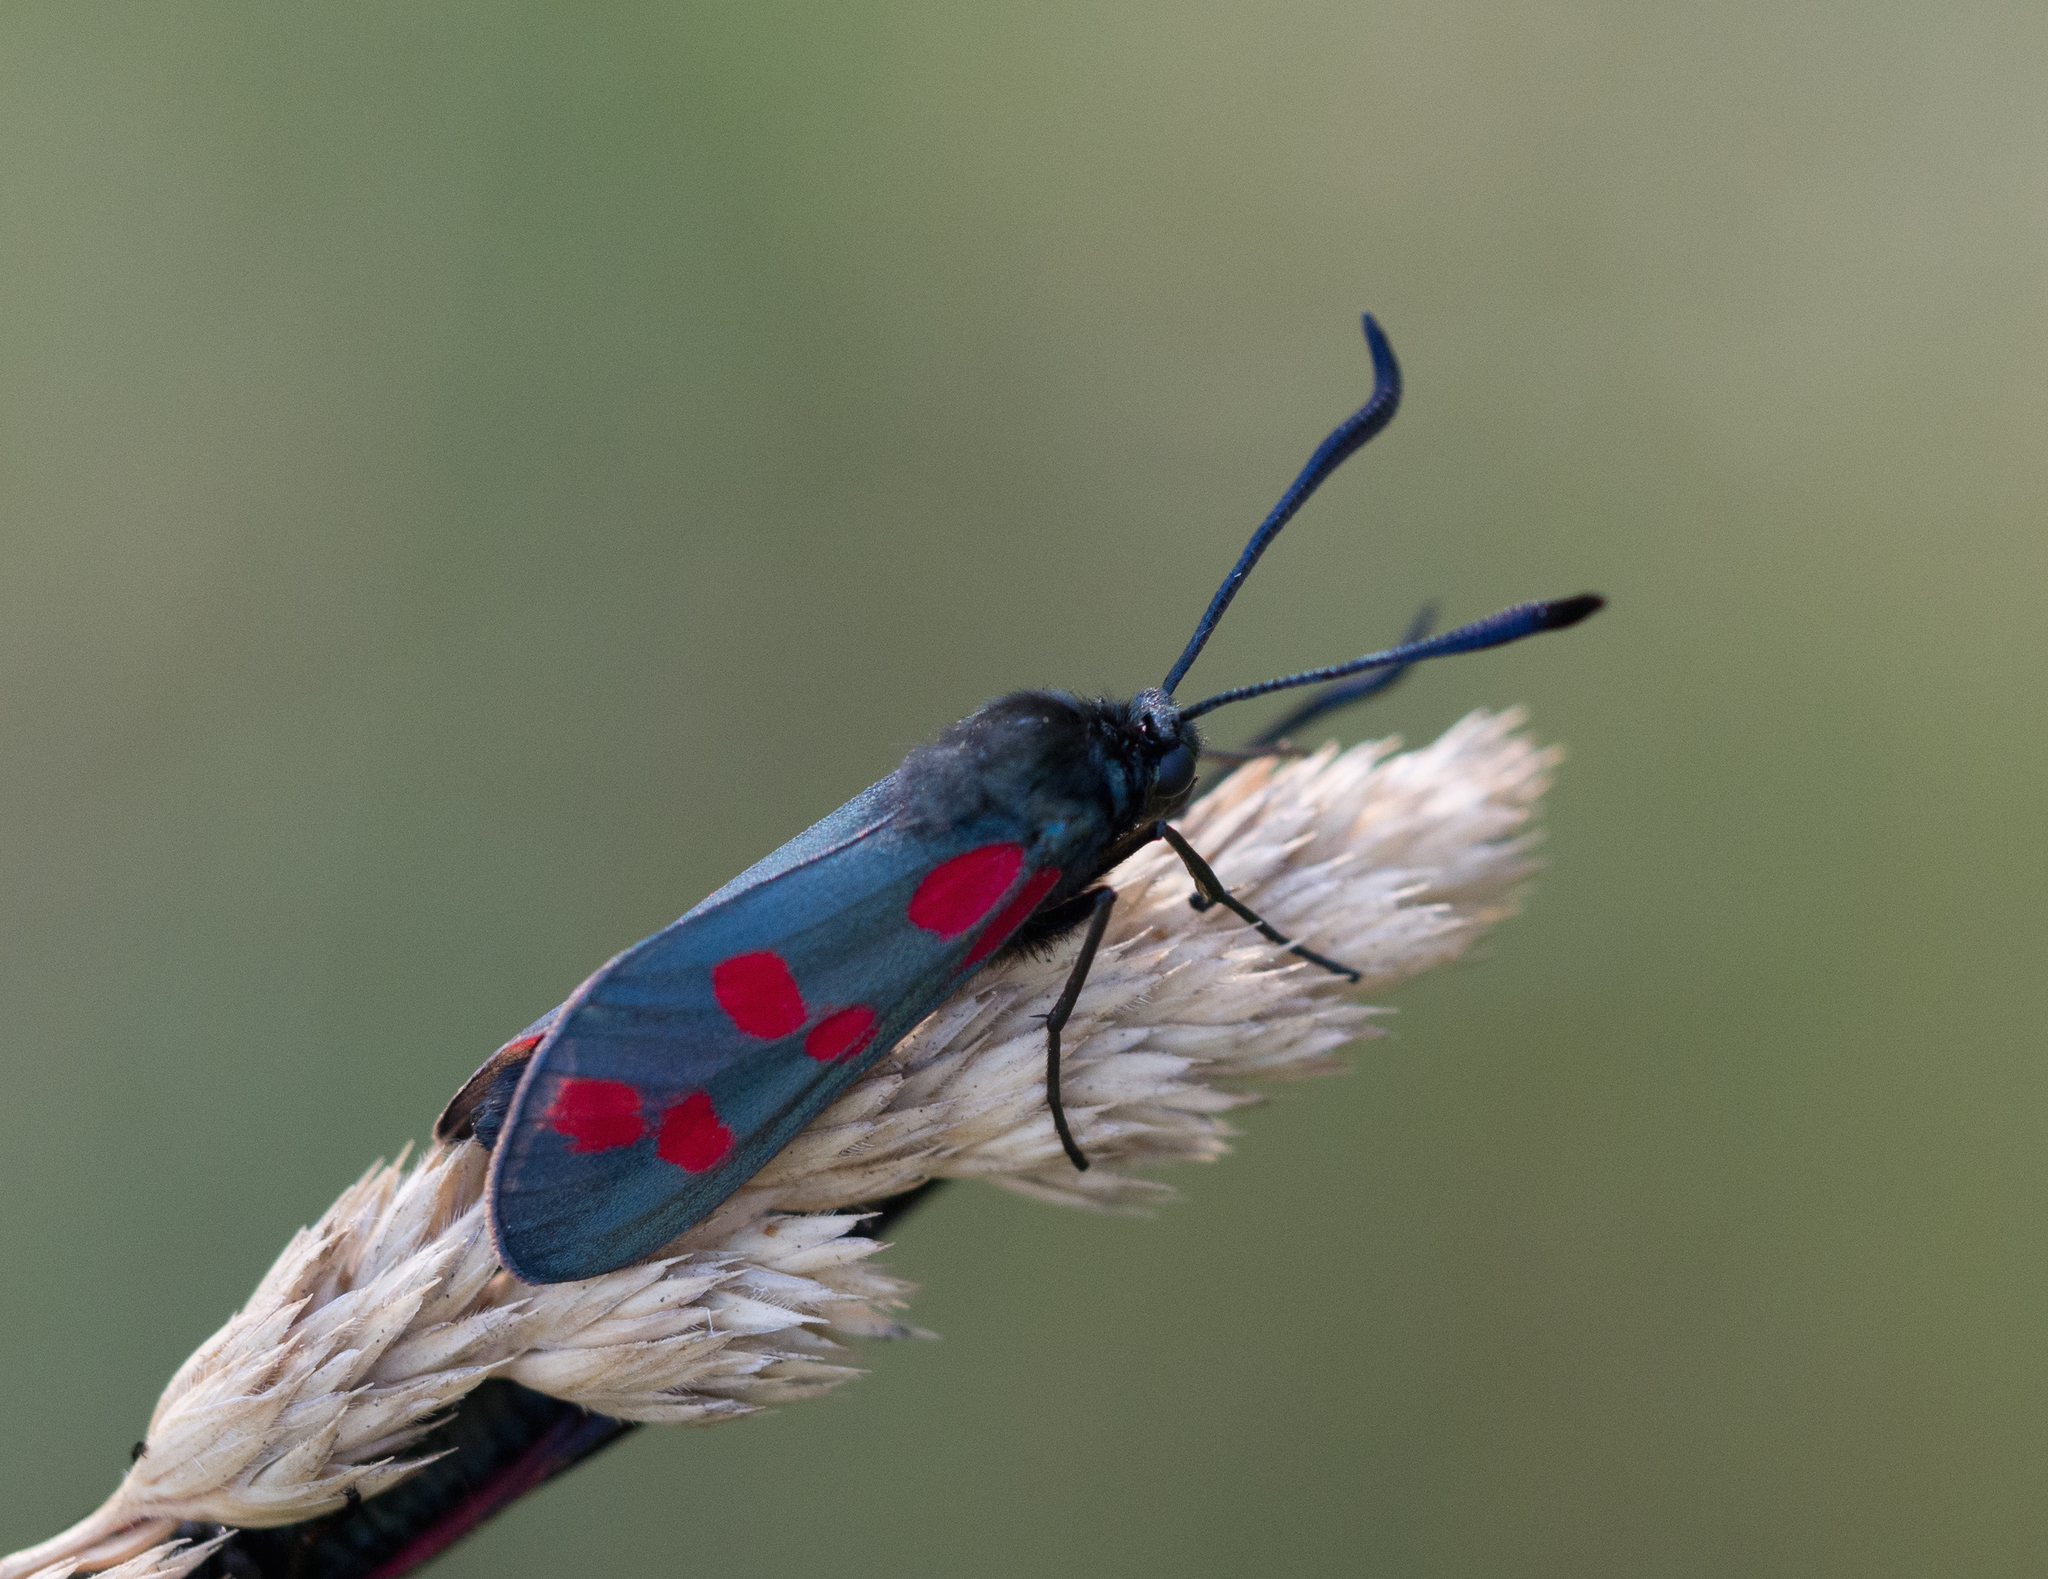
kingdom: Animalia
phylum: Arthropoda
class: Insecta
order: Lepidoptera
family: Zygaenidae
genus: Zygaena
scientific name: Zygaena filipendulae
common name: Six-spot burnet
